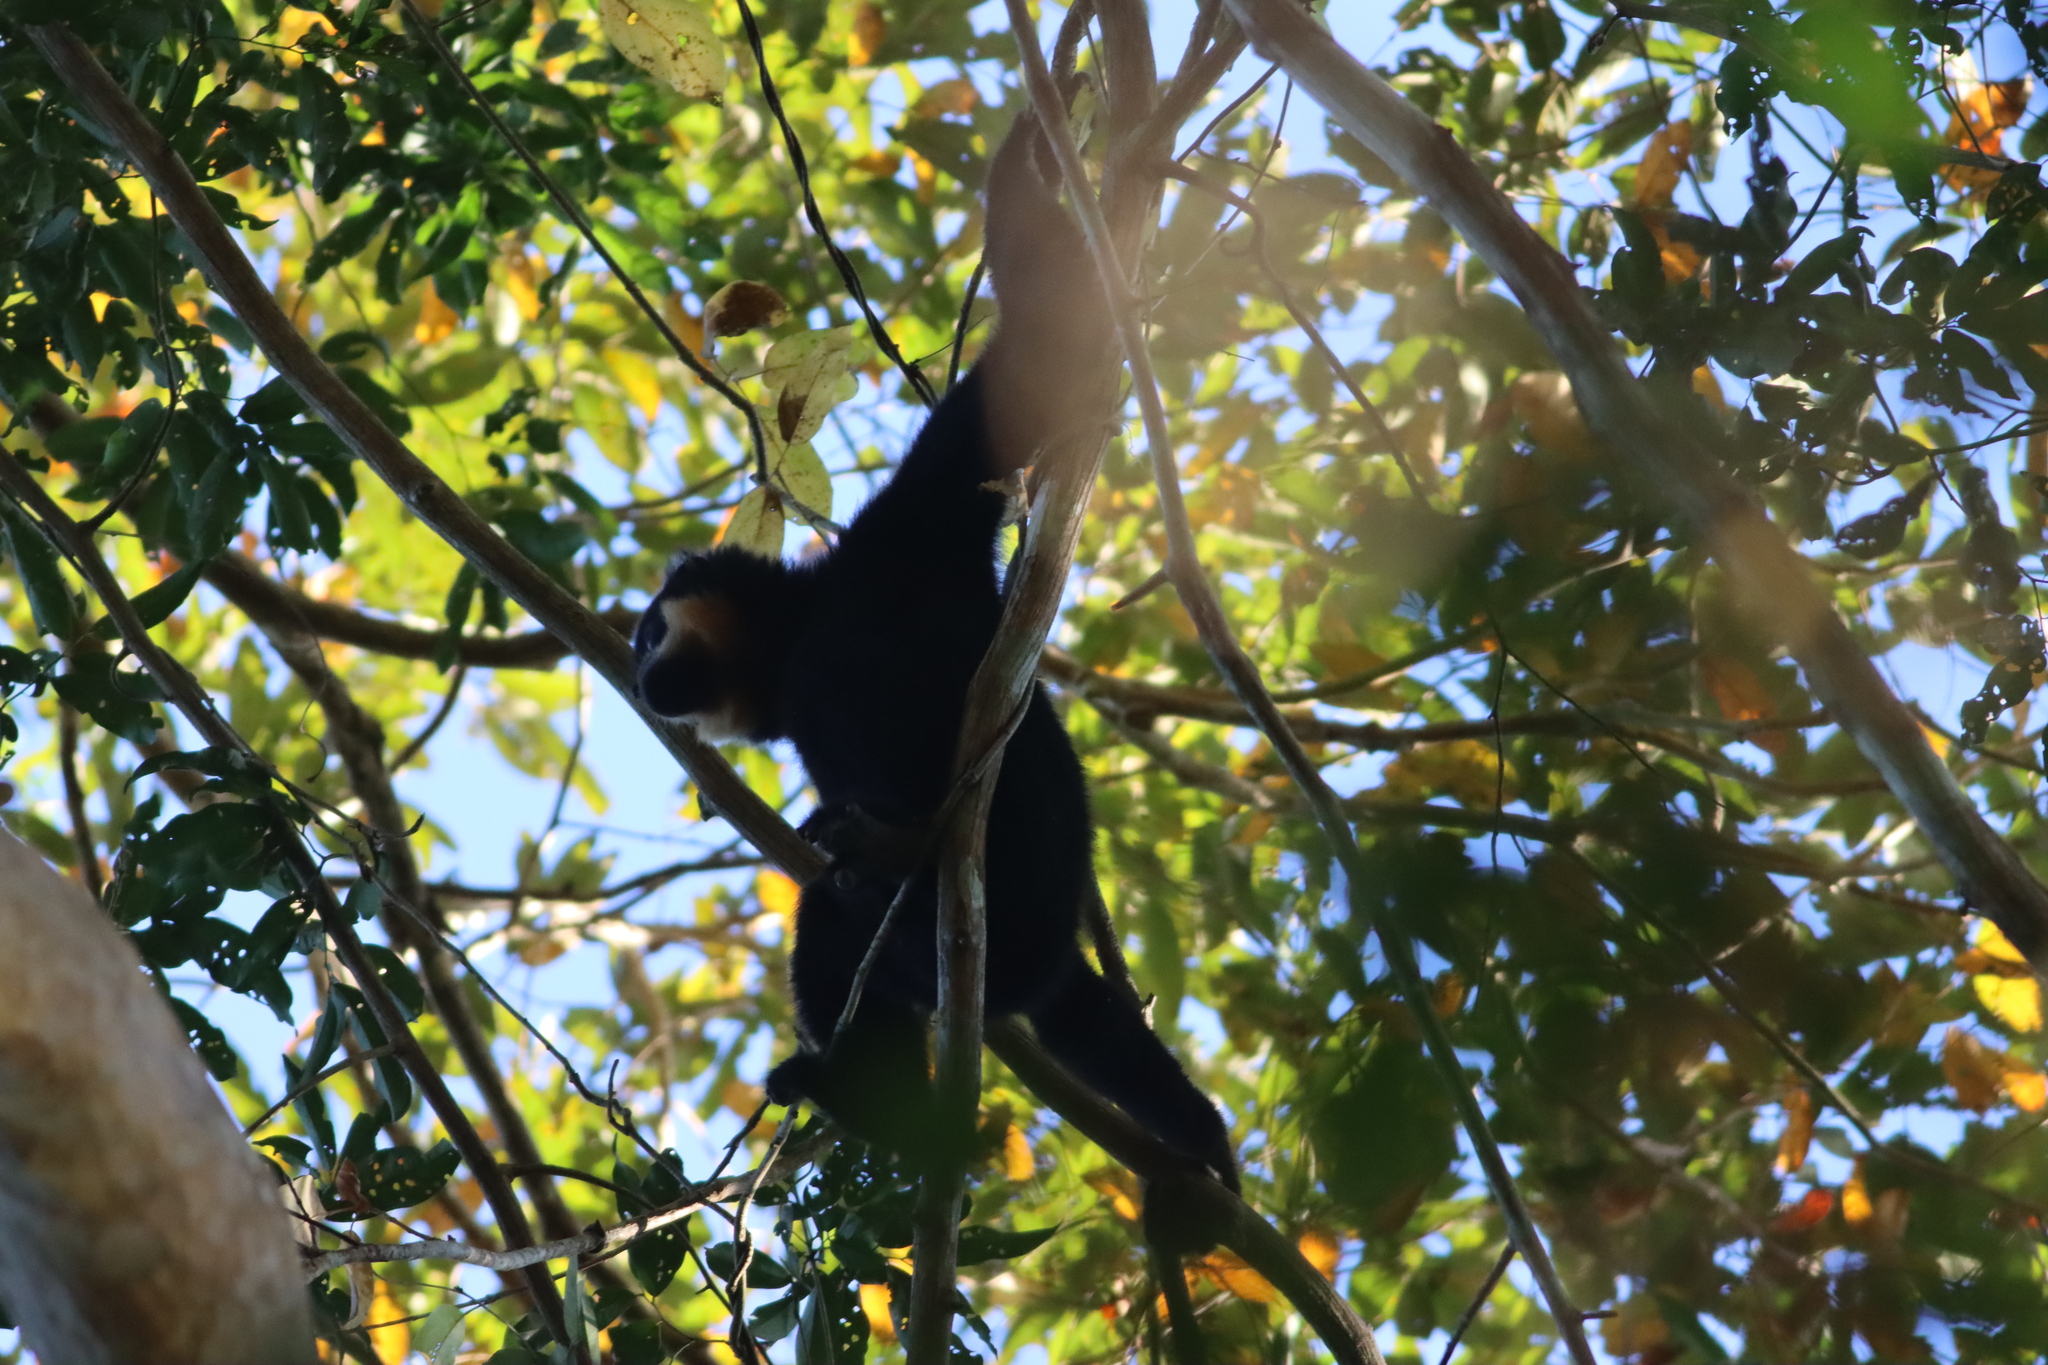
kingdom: Animalia
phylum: Chordata
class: Mammalia
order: Primates
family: Hylobatidae
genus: Nomascus
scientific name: Nomascus gabriellae
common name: Red-cheeked gibbon
